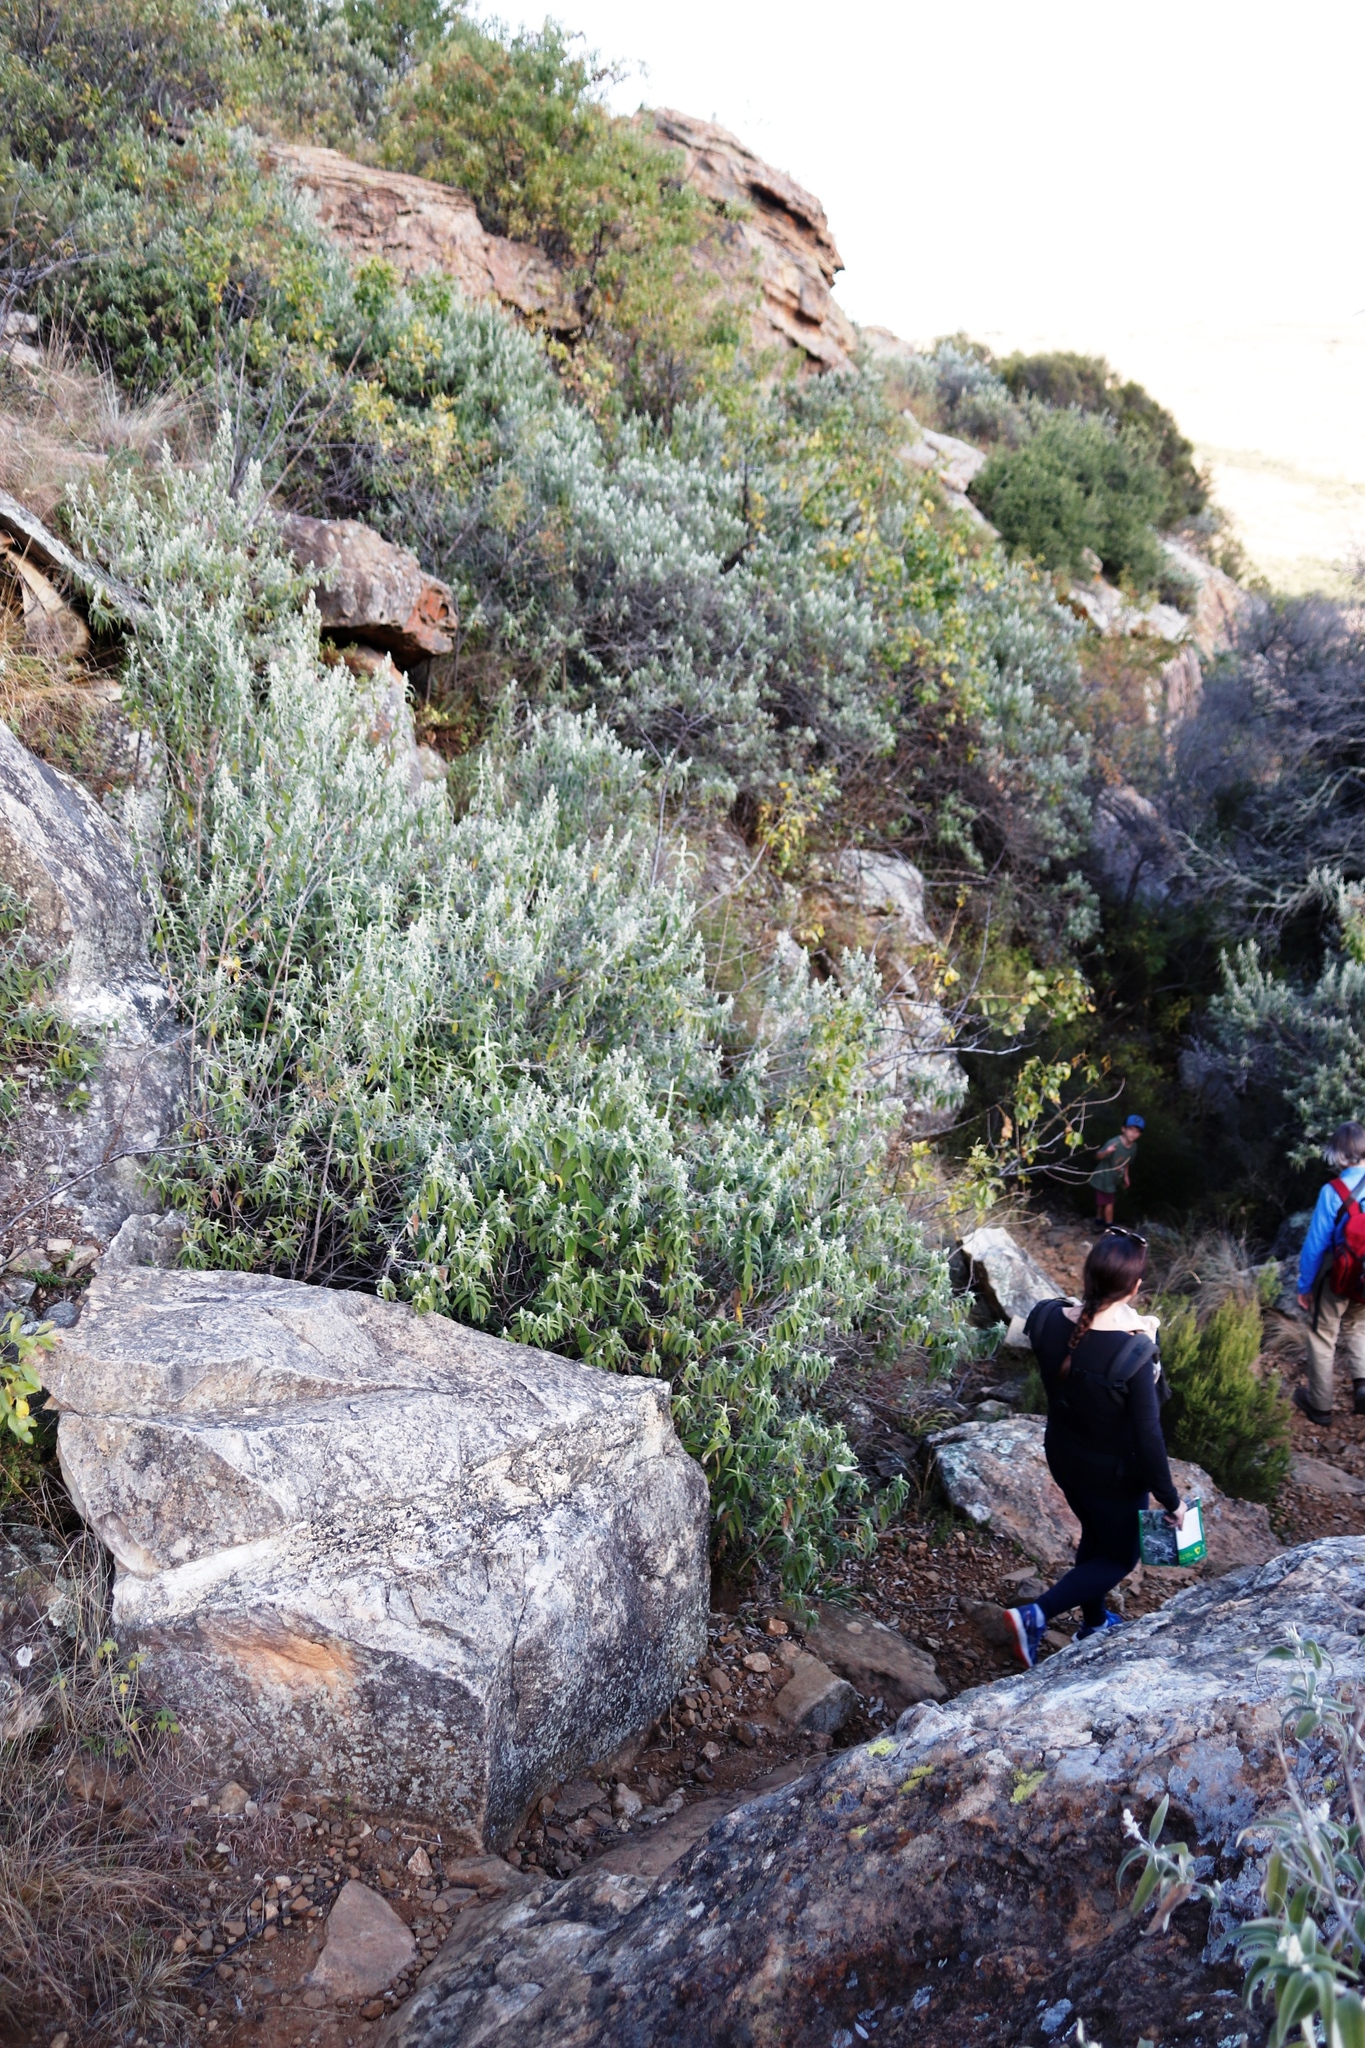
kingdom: Plantae
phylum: Tracheophyta
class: Magnoliopsida
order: Lamiales
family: Scrophulariaceae
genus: Buddleja
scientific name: Buddleja salviifolia
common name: Sagewood
